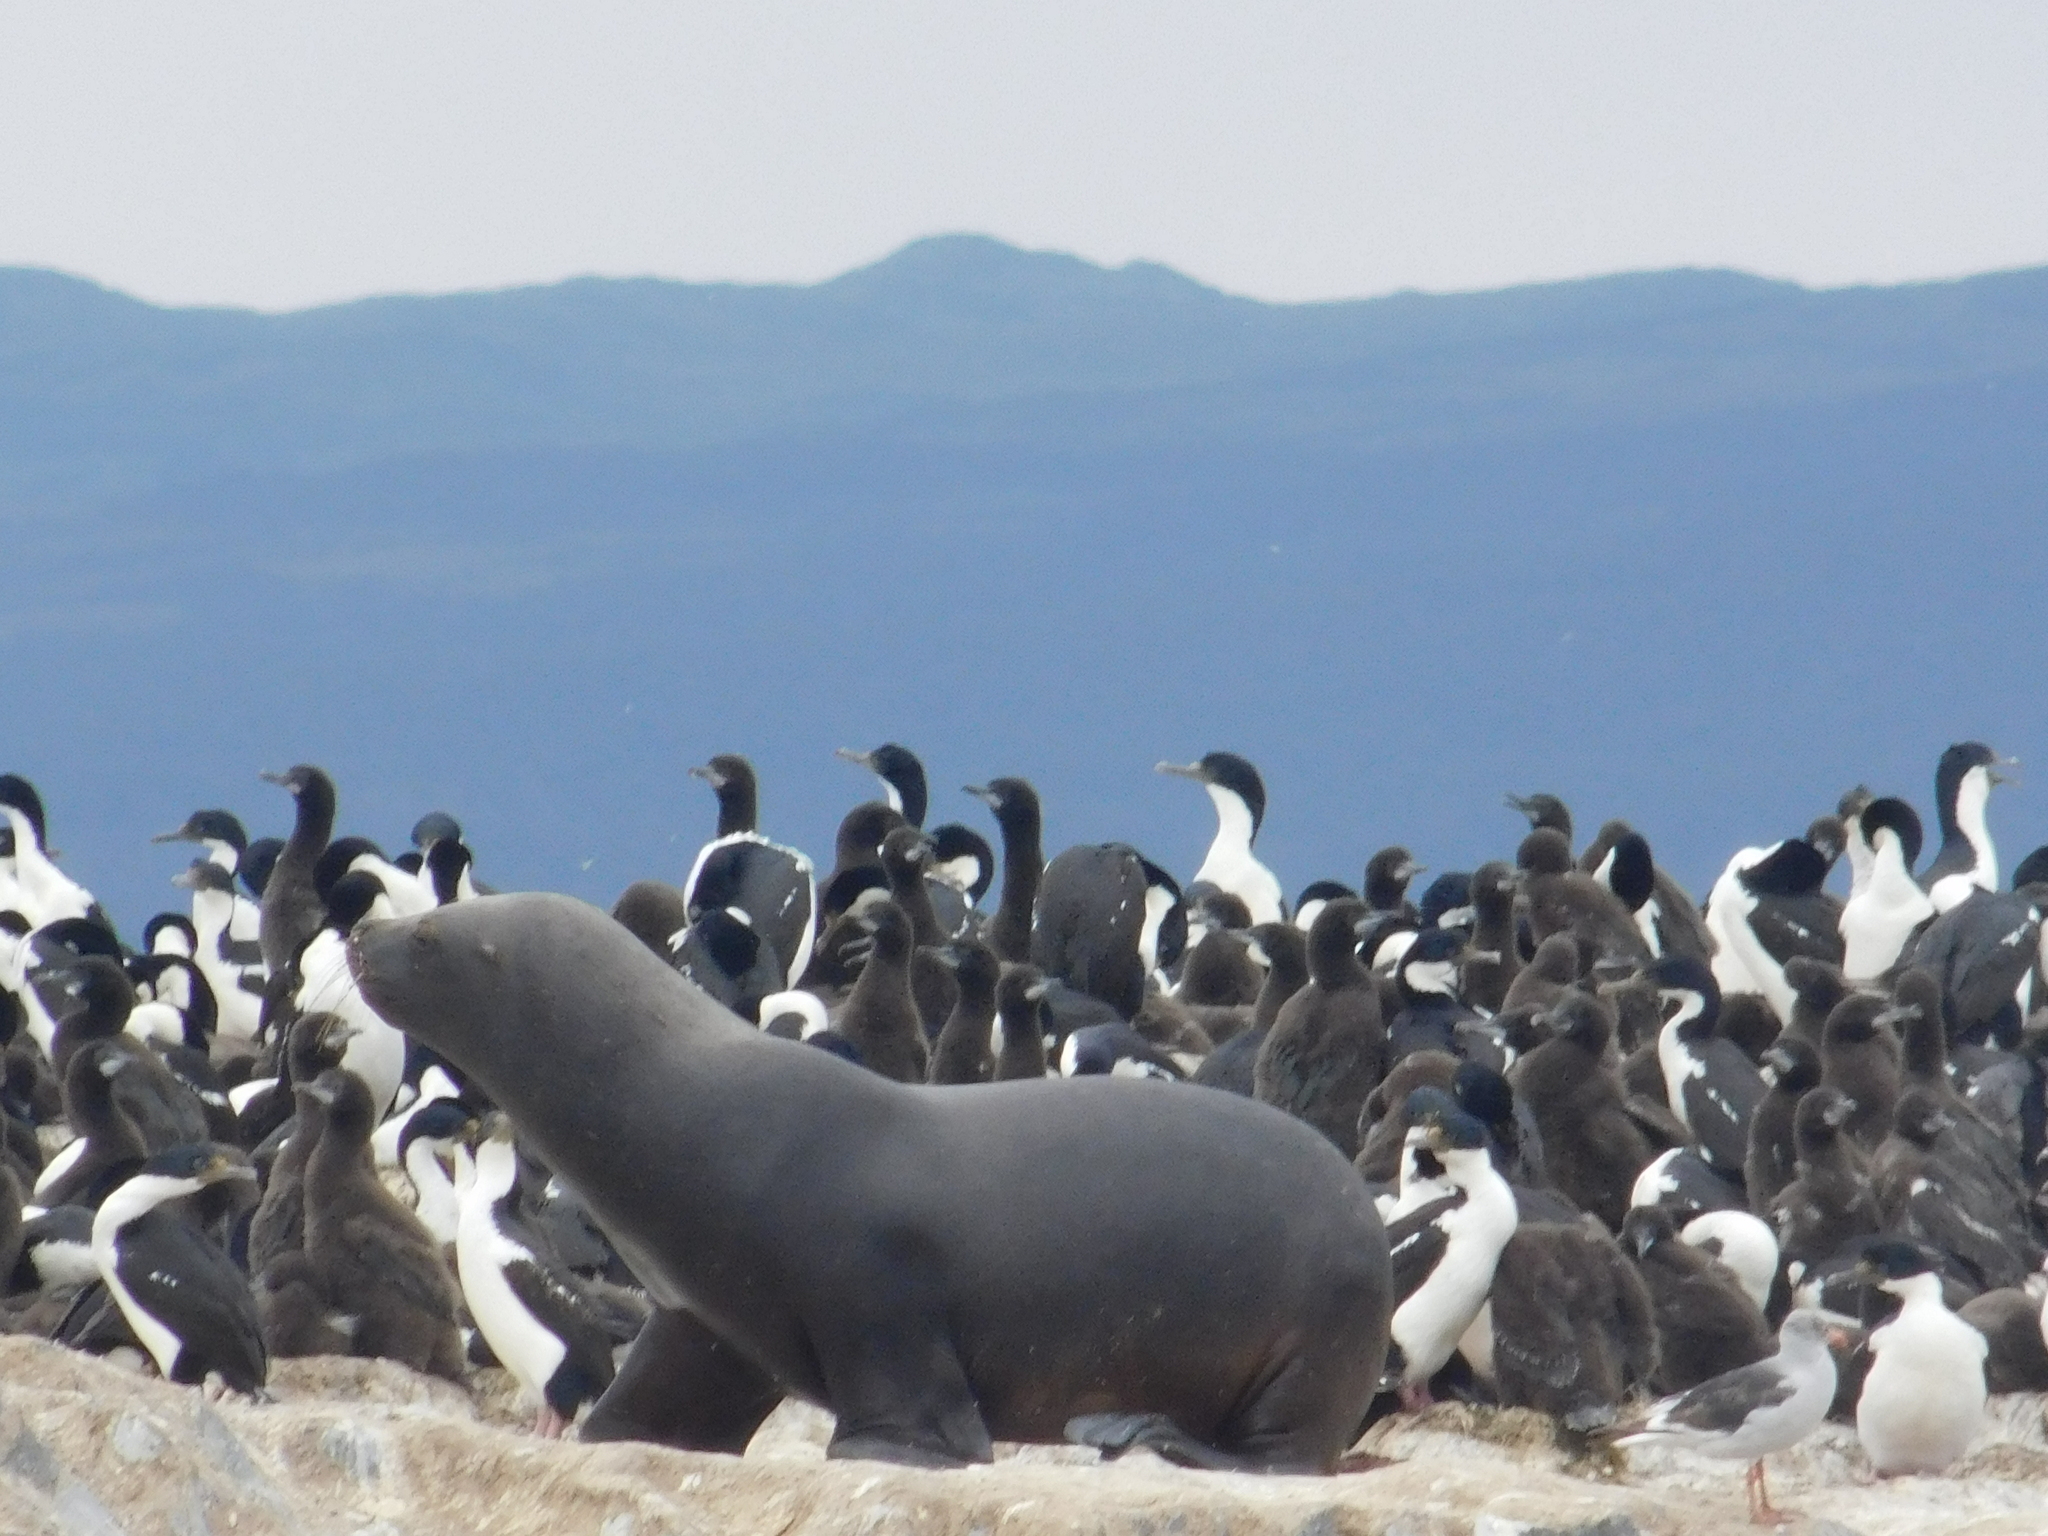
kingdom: Animalia
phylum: Chordata
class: Mammalia
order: Carnivora
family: Otariidae
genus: Otaria
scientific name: Otaria byronia
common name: South american sea lion
